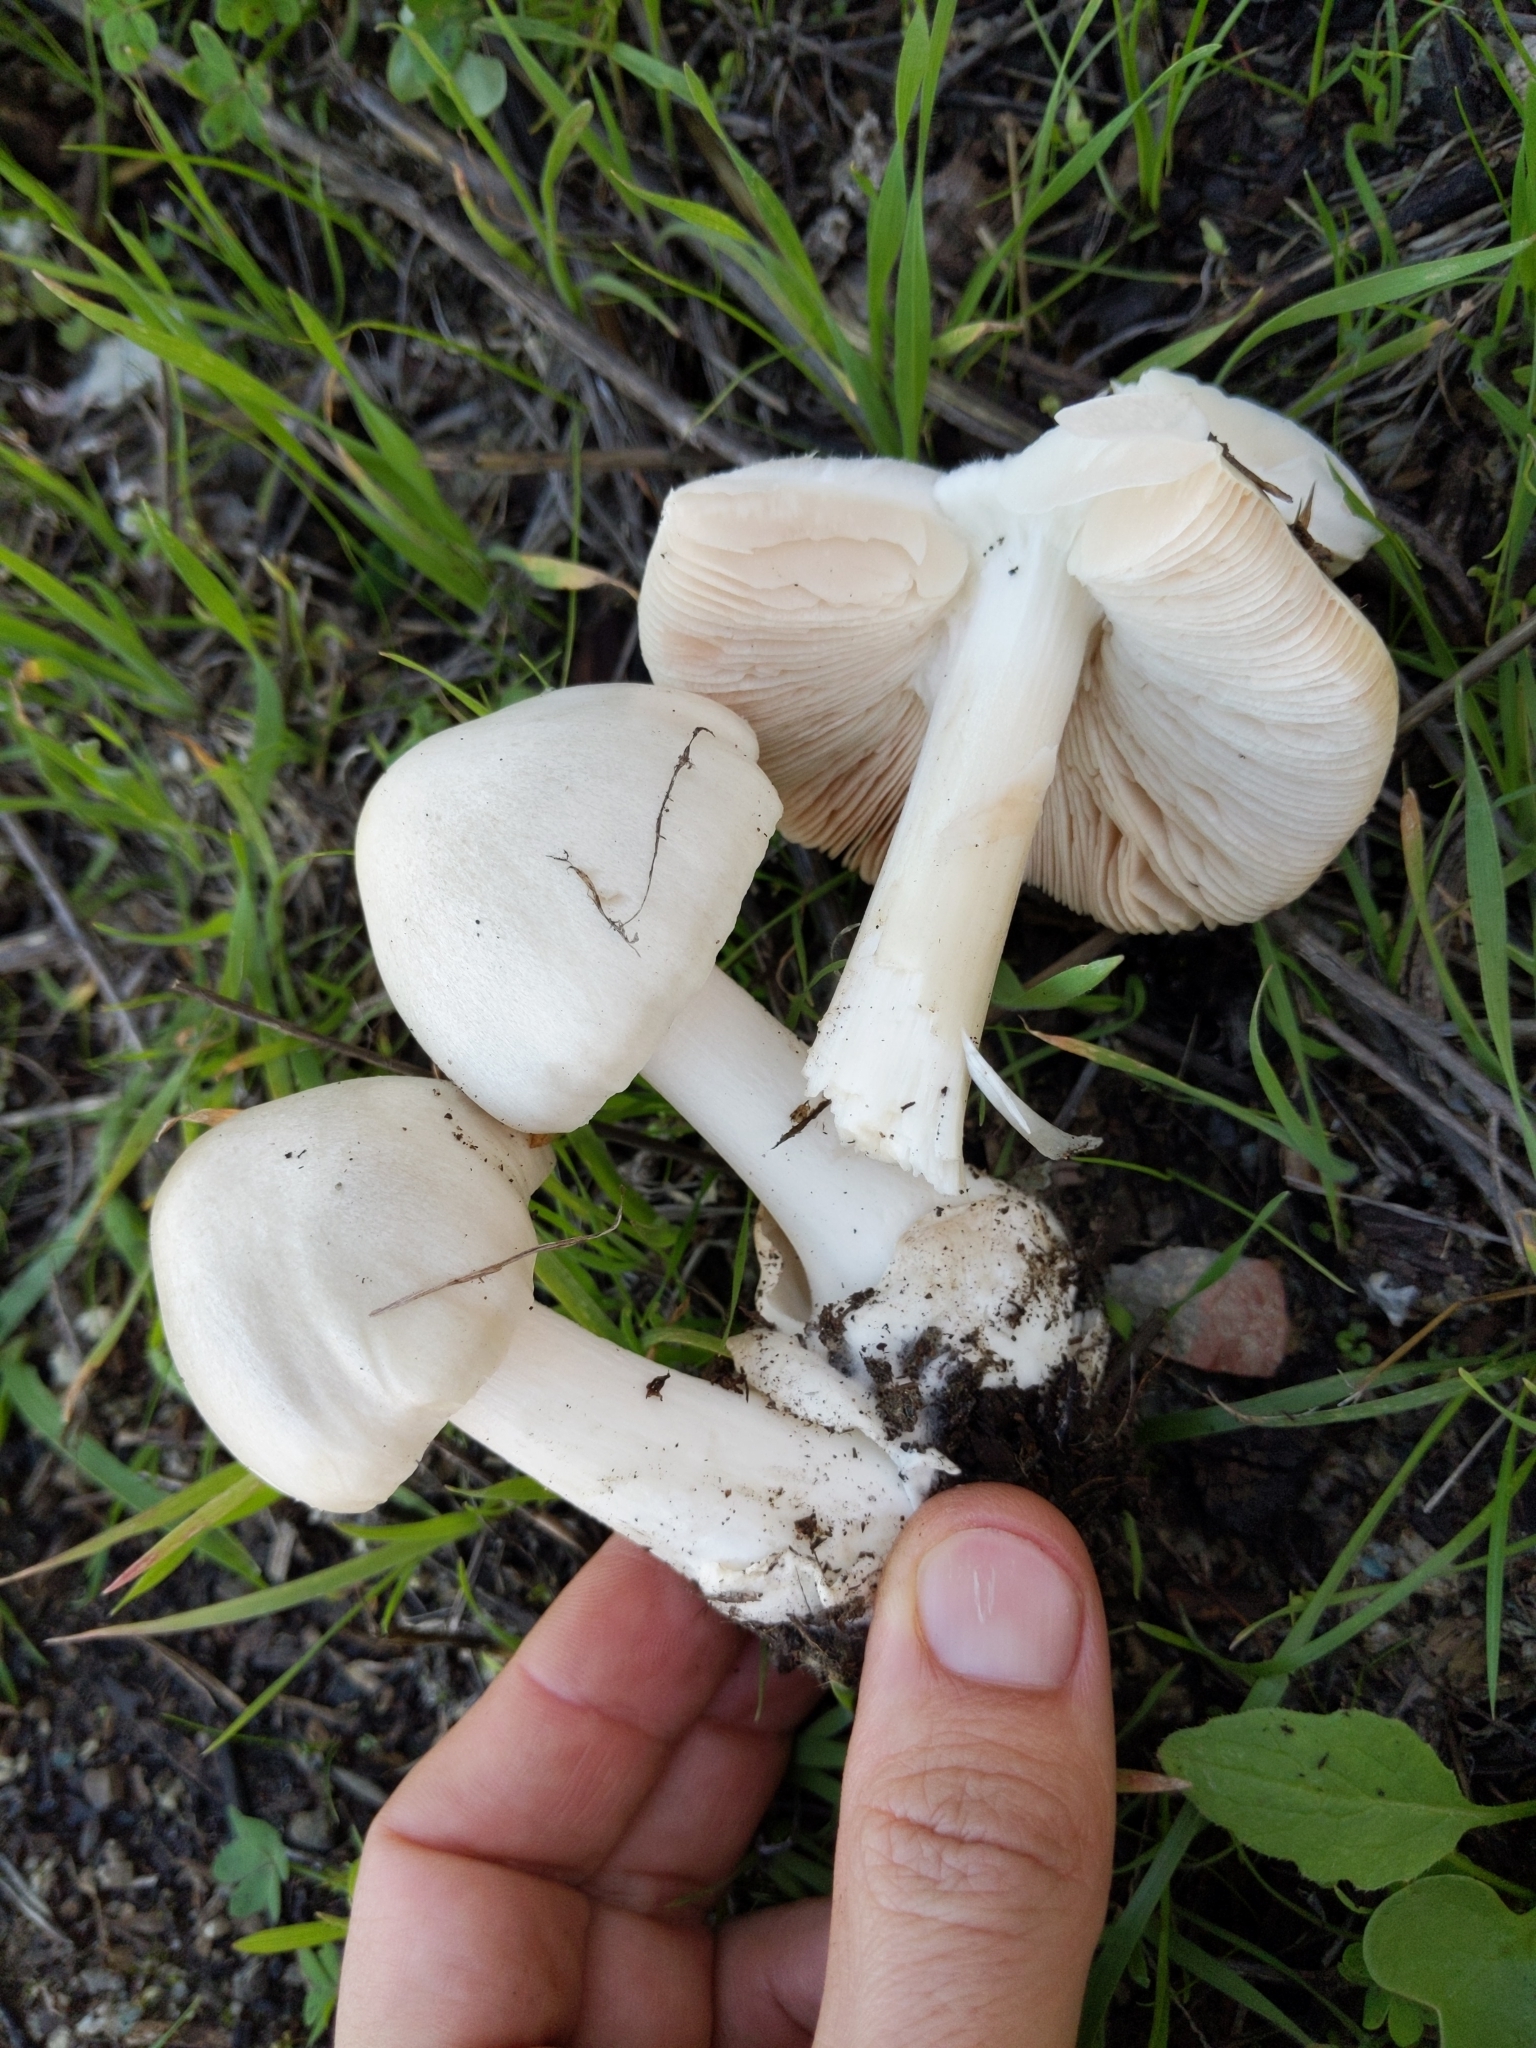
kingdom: Fungi
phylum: Basidiomycota
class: Agaricomycetes
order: Agaricales
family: Pluteaceae
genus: Volvopluteus
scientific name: Volvopluteus gloiocephalus
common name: Stubble rosegill
